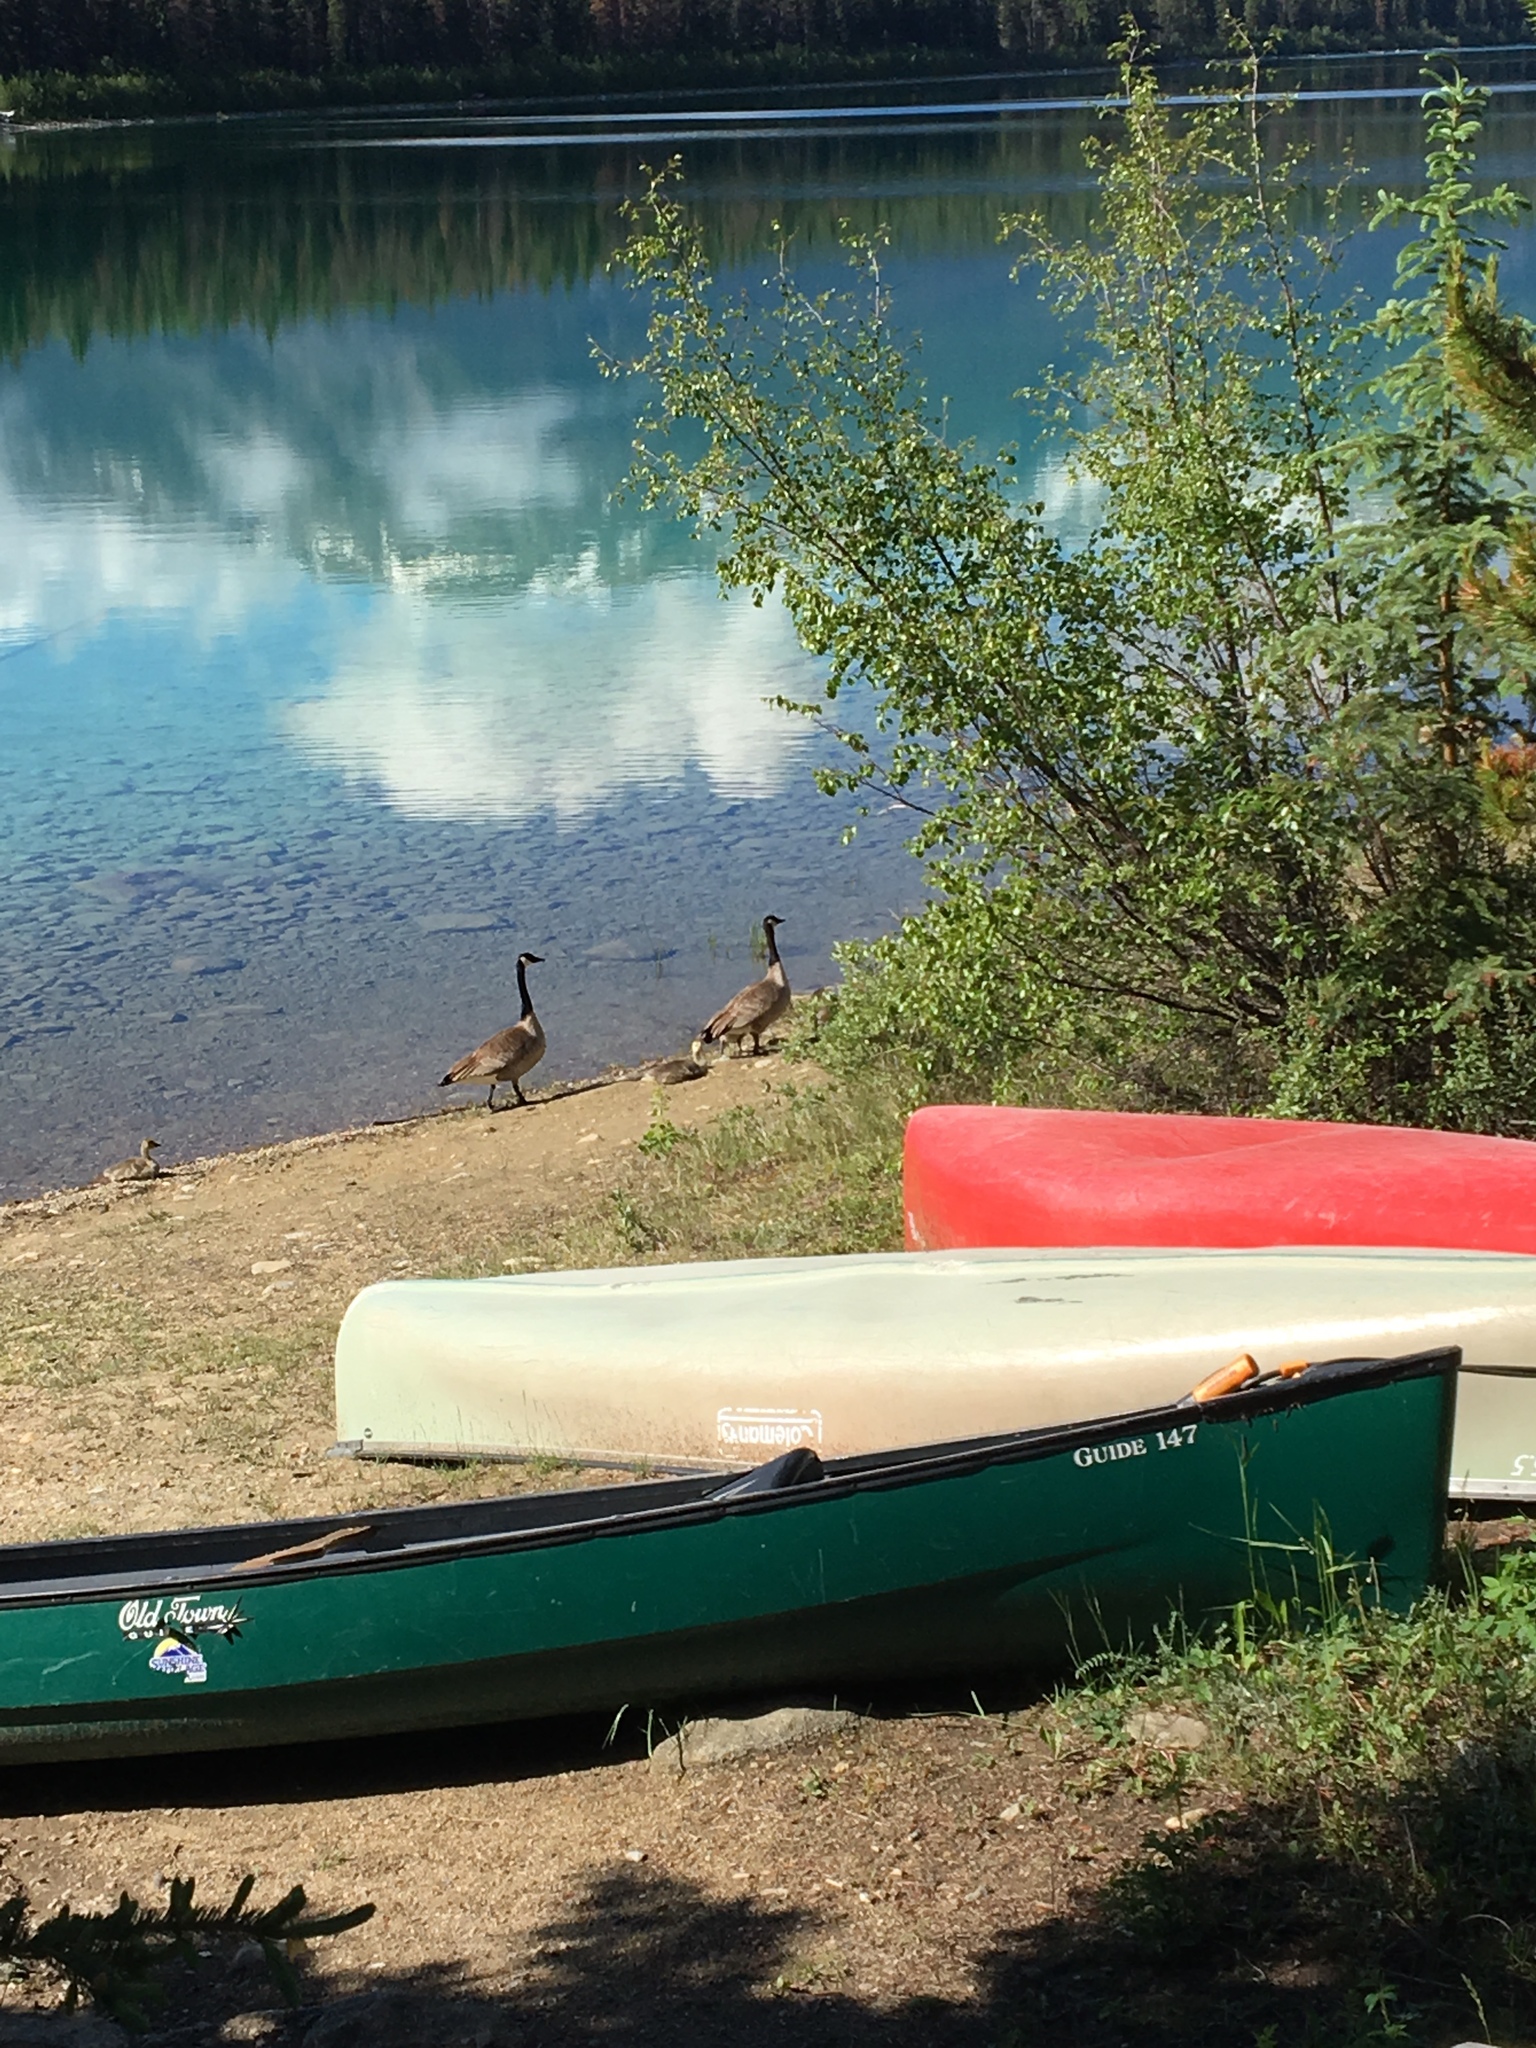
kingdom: Animalia
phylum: Chordata
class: Aves
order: Anseriformes
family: Anatidae
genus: Branta
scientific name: Branta canadensis
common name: Canada goose
